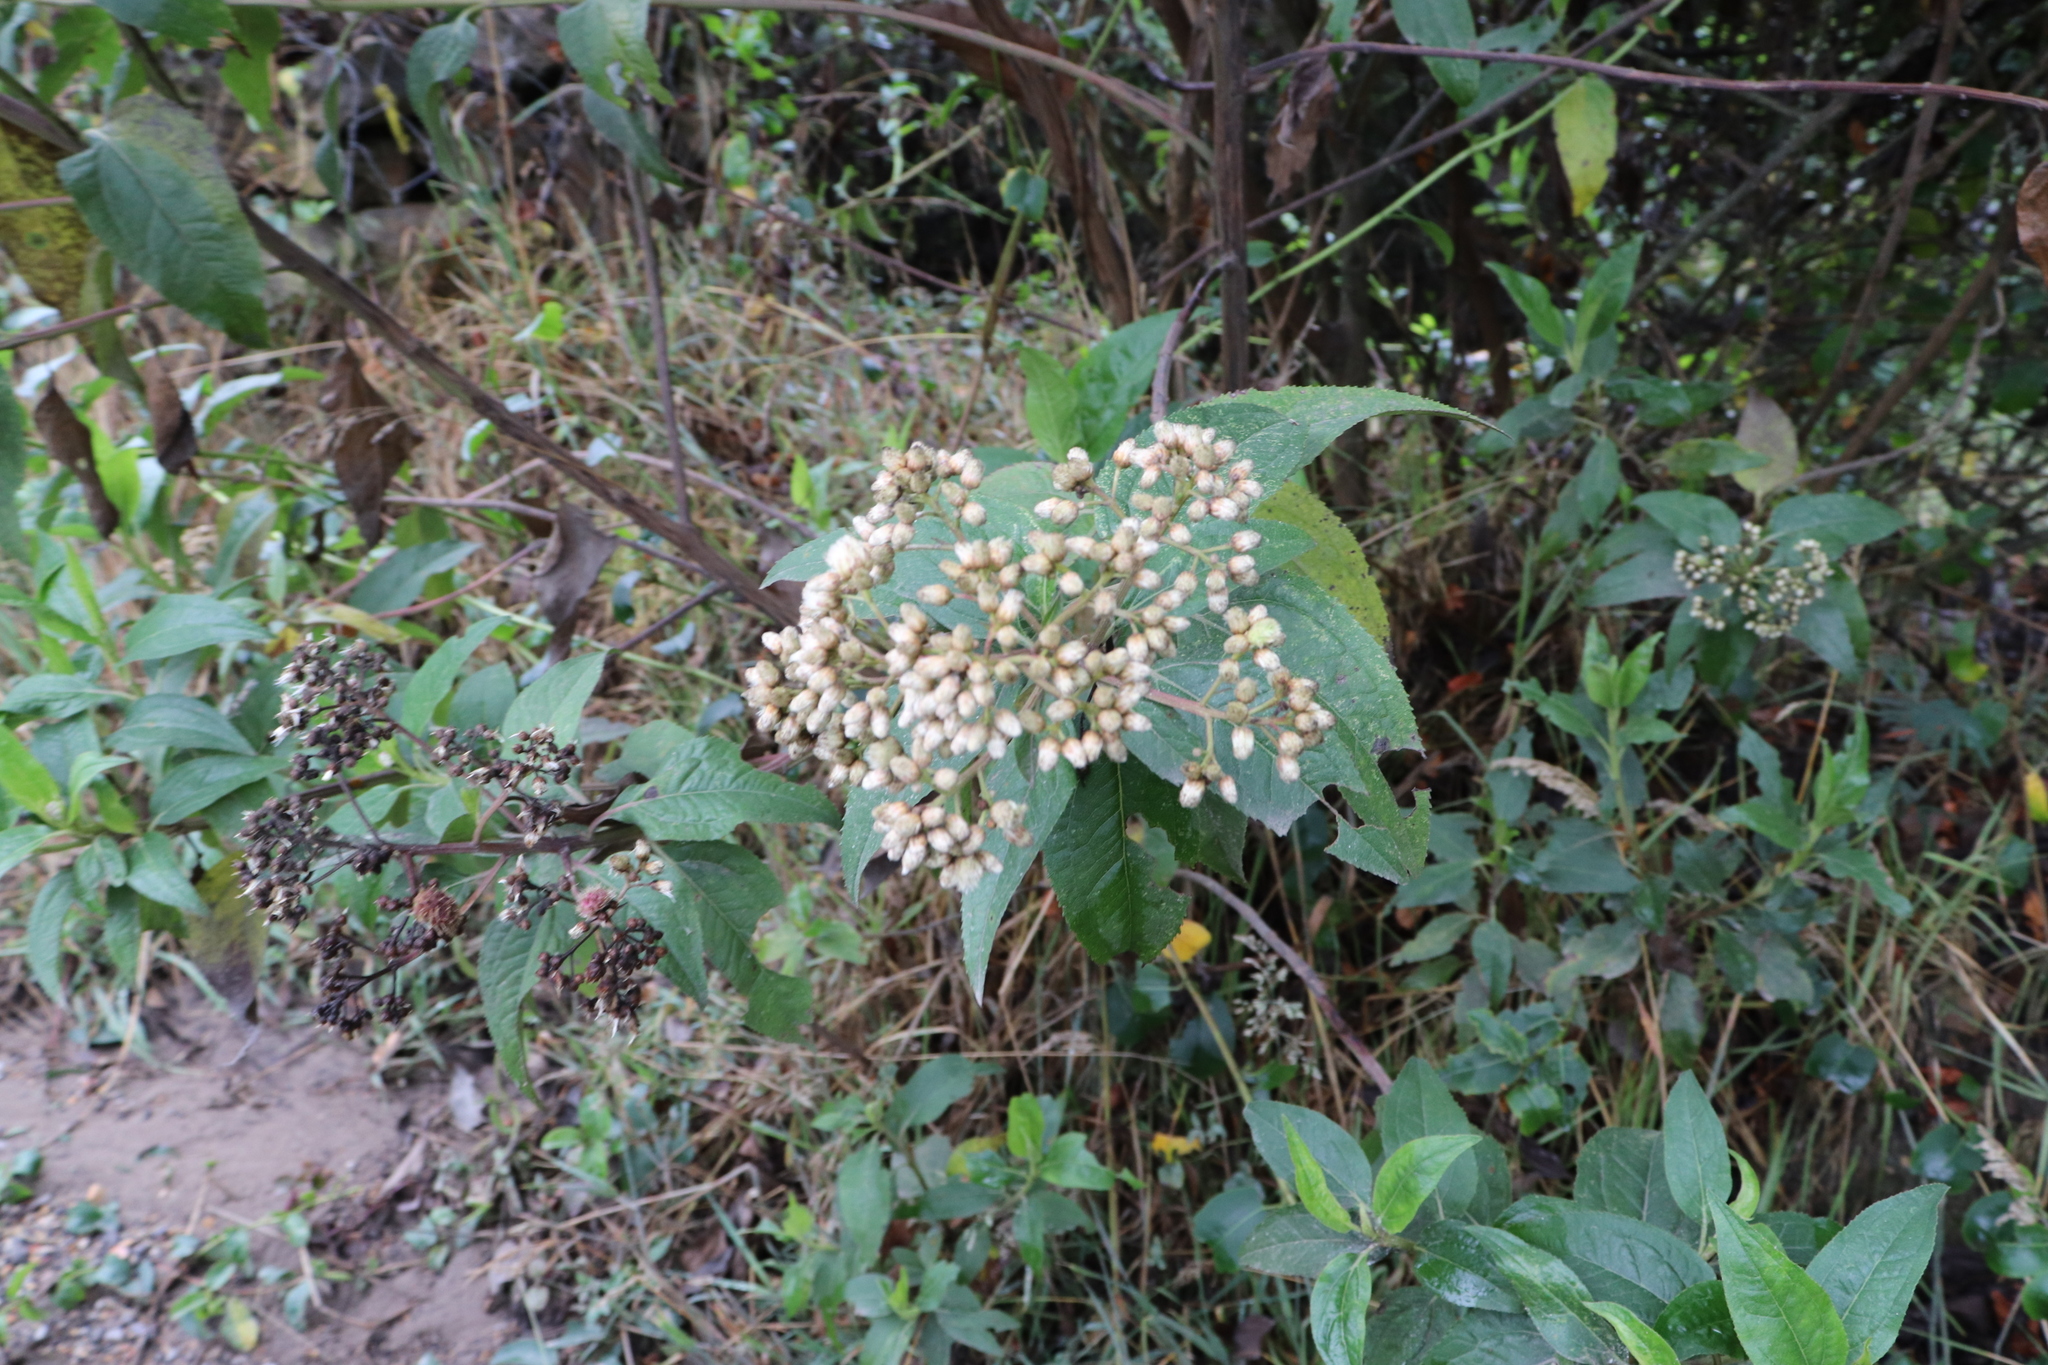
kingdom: Plantae
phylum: Tracheophyta
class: Magnoliopsida
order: Asterales
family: Asteraceae
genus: Baccharis
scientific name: Baccharis latifolia
